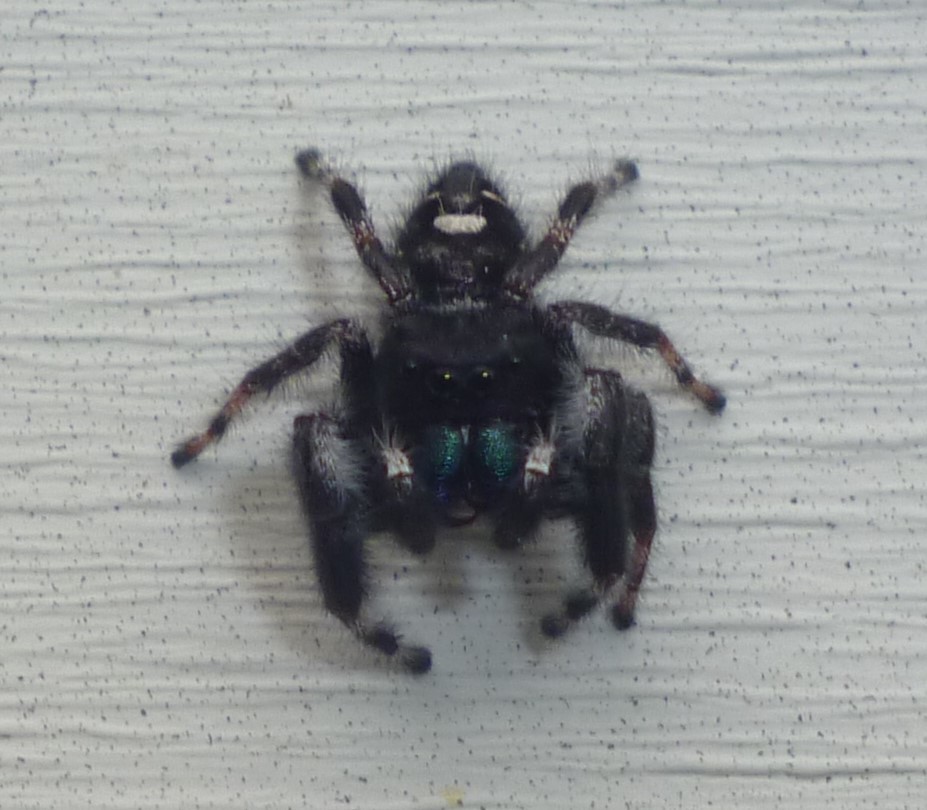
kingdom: Animalia
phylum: Arthropoda
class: Arachnida
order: Araneae
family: Salticidae
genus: Phidippus
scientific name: Phidippus audax
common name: Bold jumper
